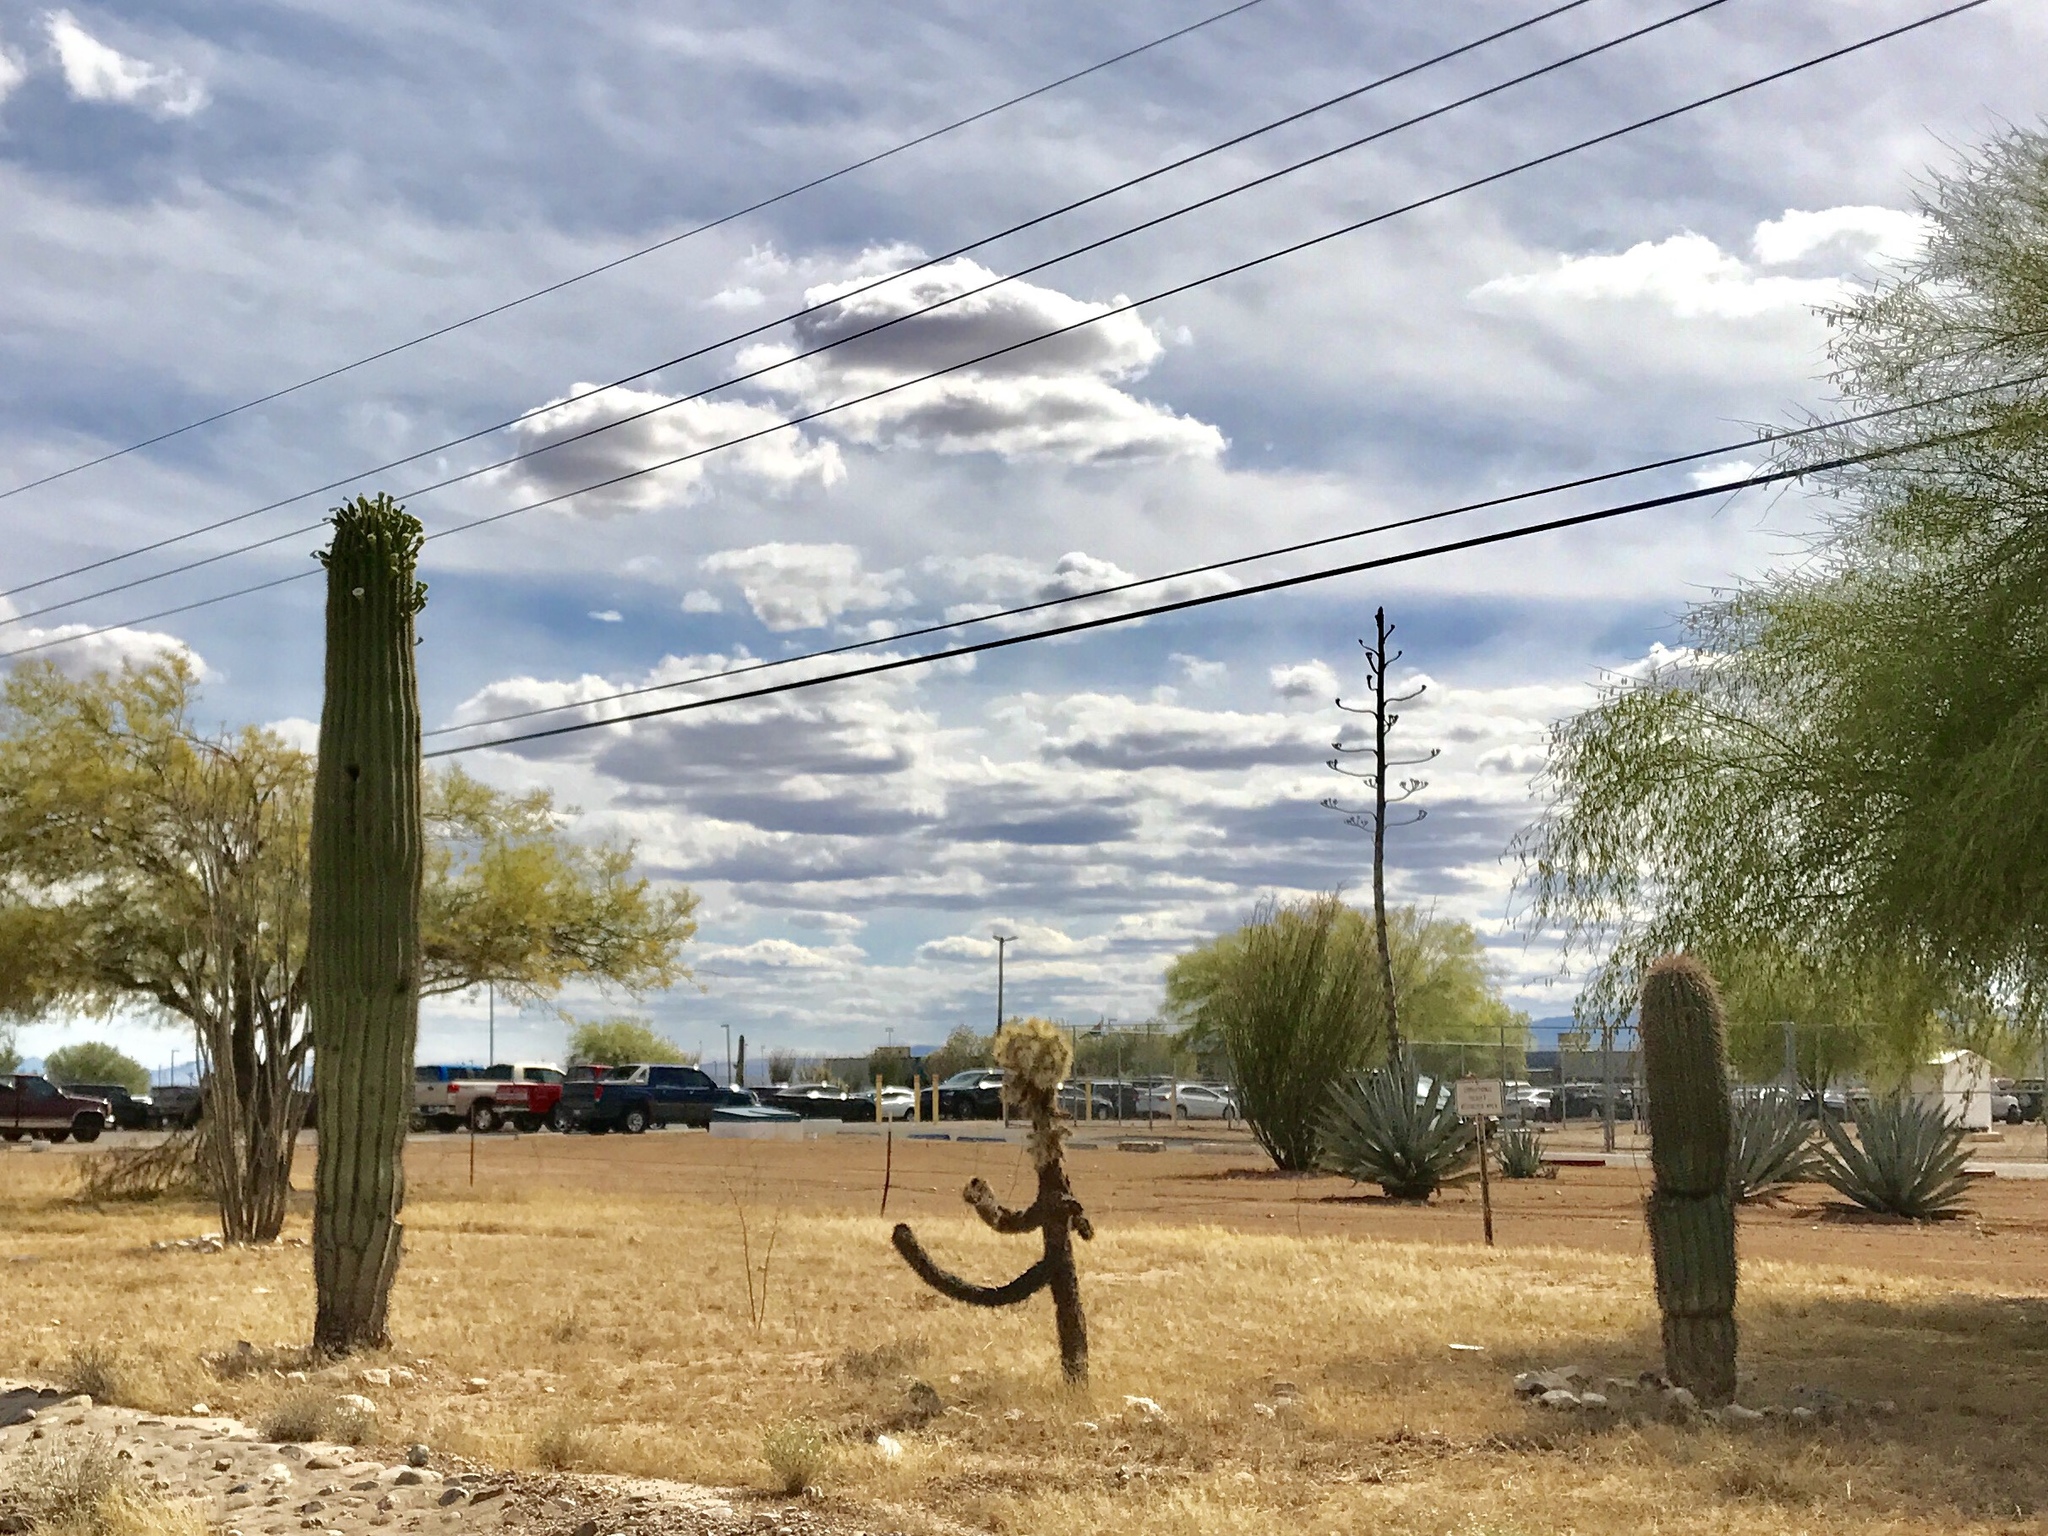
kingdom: Plantae
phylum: Tracheophyta
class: Magnoliopsida
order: Caryophyllales
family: Cactaceae
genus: Carnegiea
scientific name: Carnegiea gigantea
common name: Saguaro
